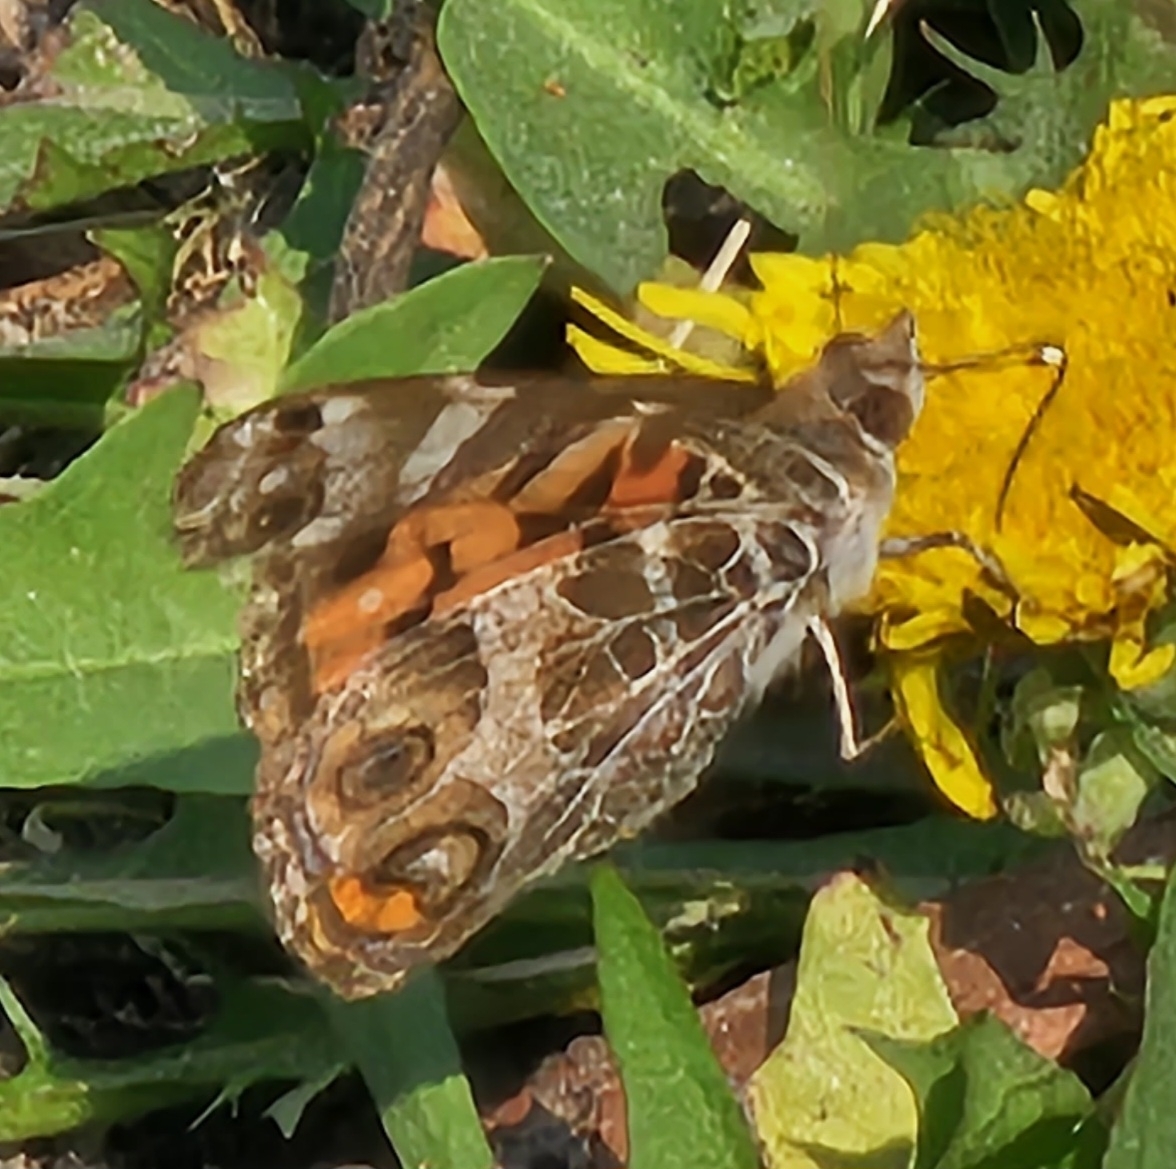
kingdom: Animalia
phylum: Arthropoda
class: Insecta
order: Lepidoptera
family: Nymphalidae
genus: Vanessa
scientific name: Vanessa virginiensis
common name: American lady
